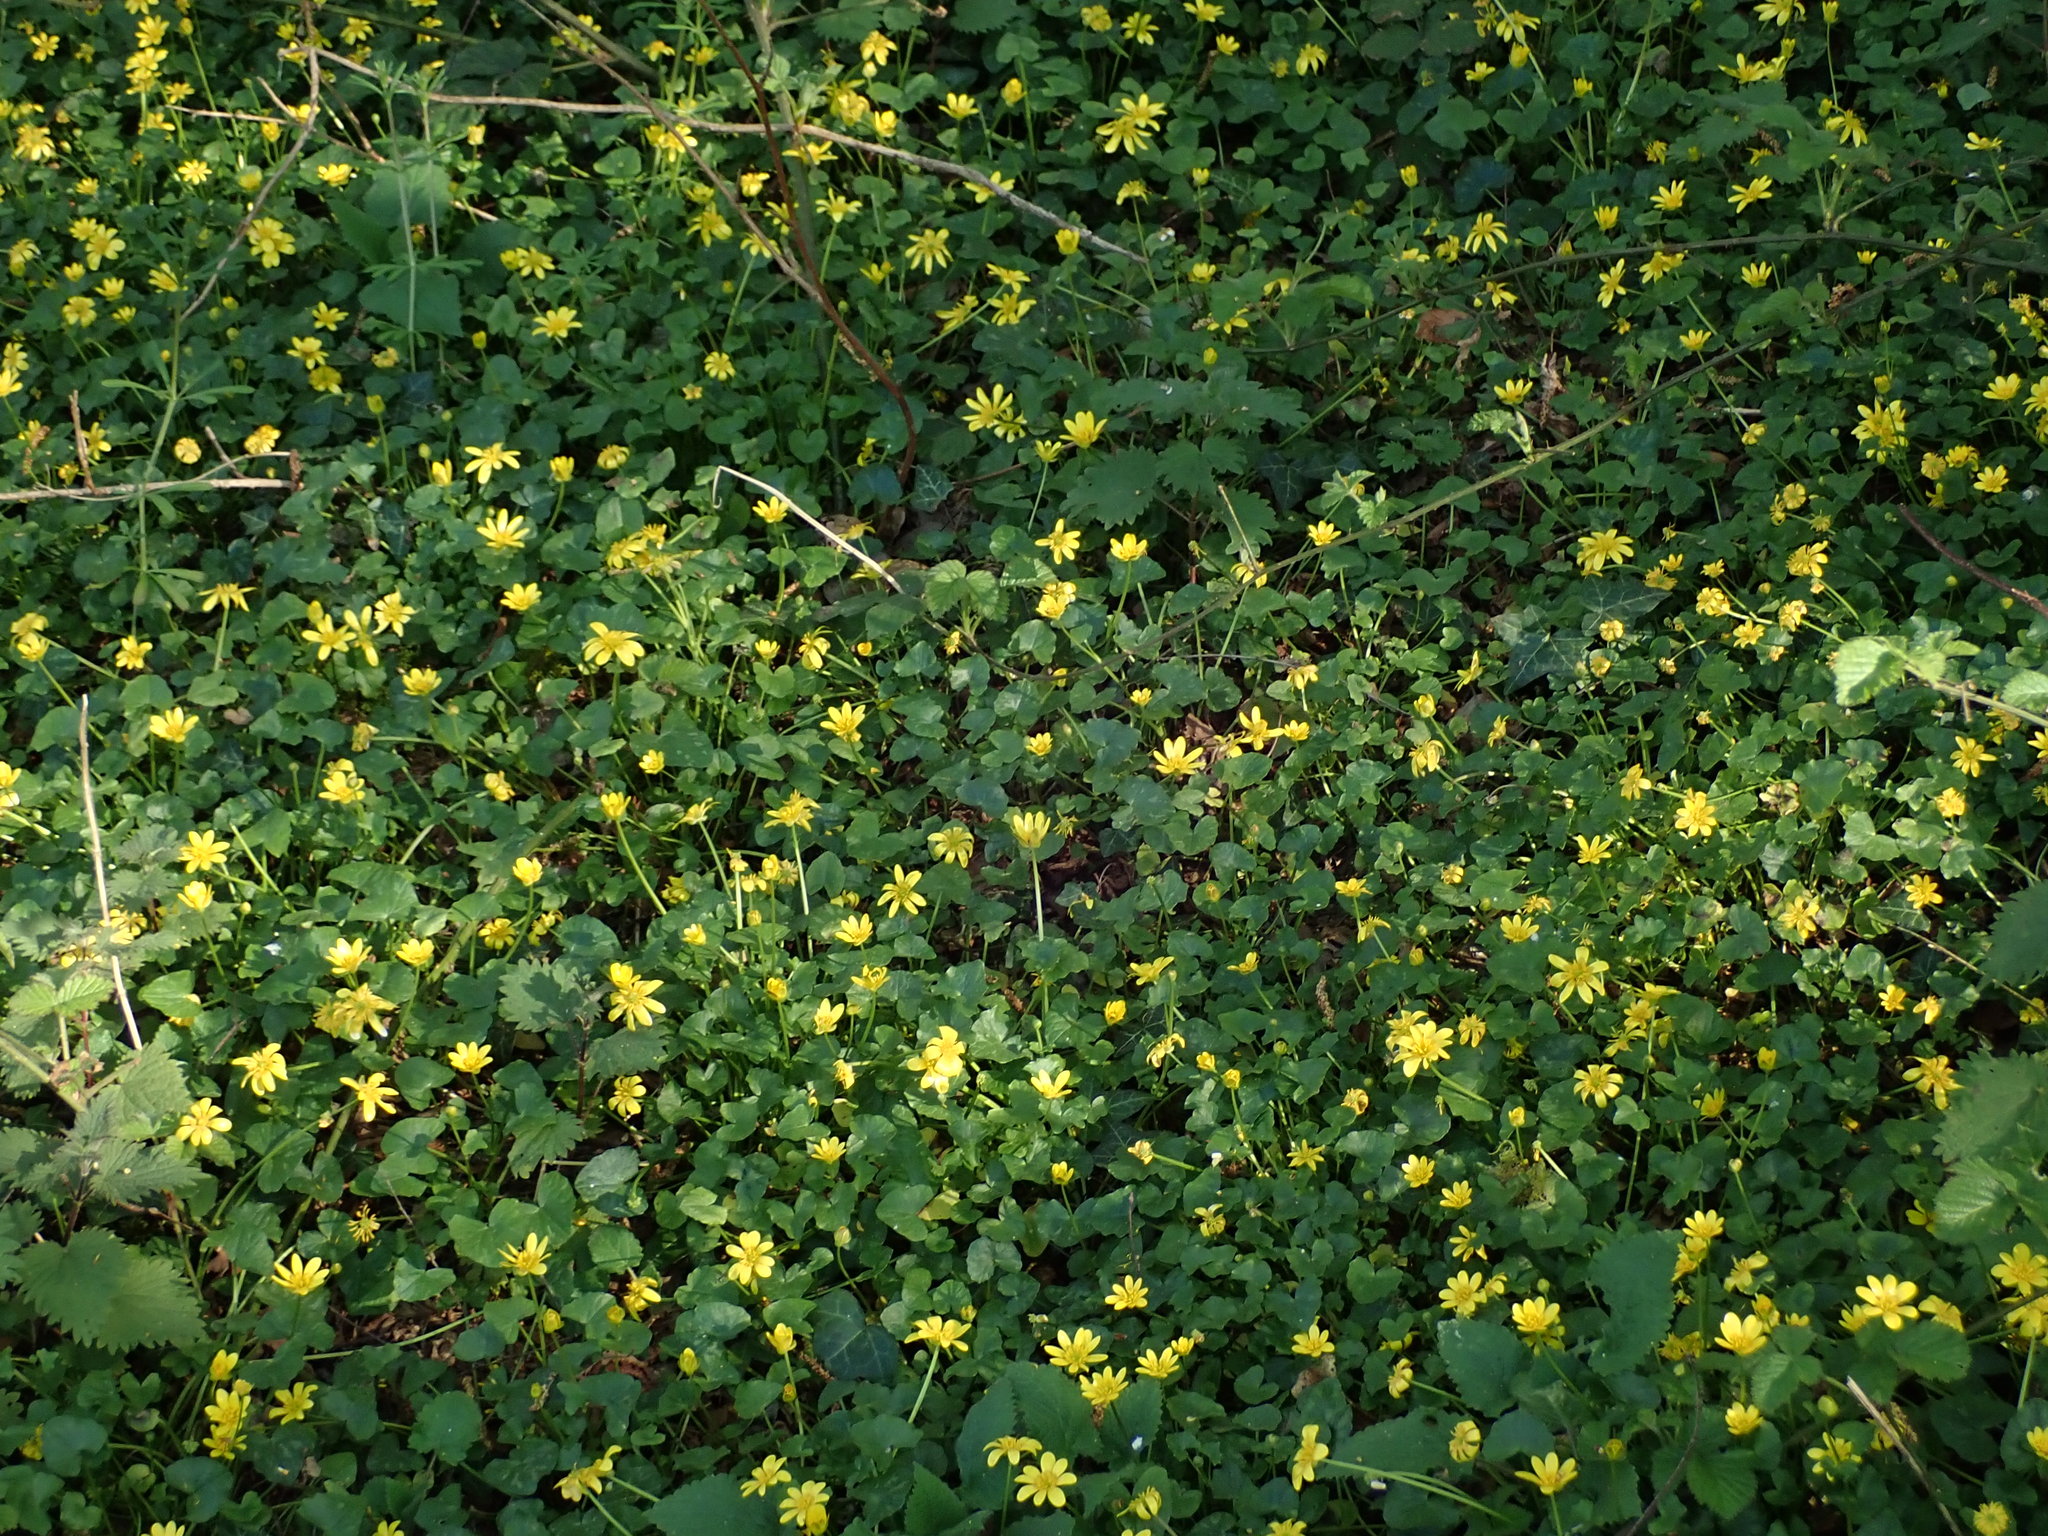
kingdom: Plantae
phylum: Tracheophyta
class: Magnoliopsida
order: Ranunculales
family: Ranunculaceae
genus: Ficaria
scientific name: Ficaria verna
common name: Lesser celandine
